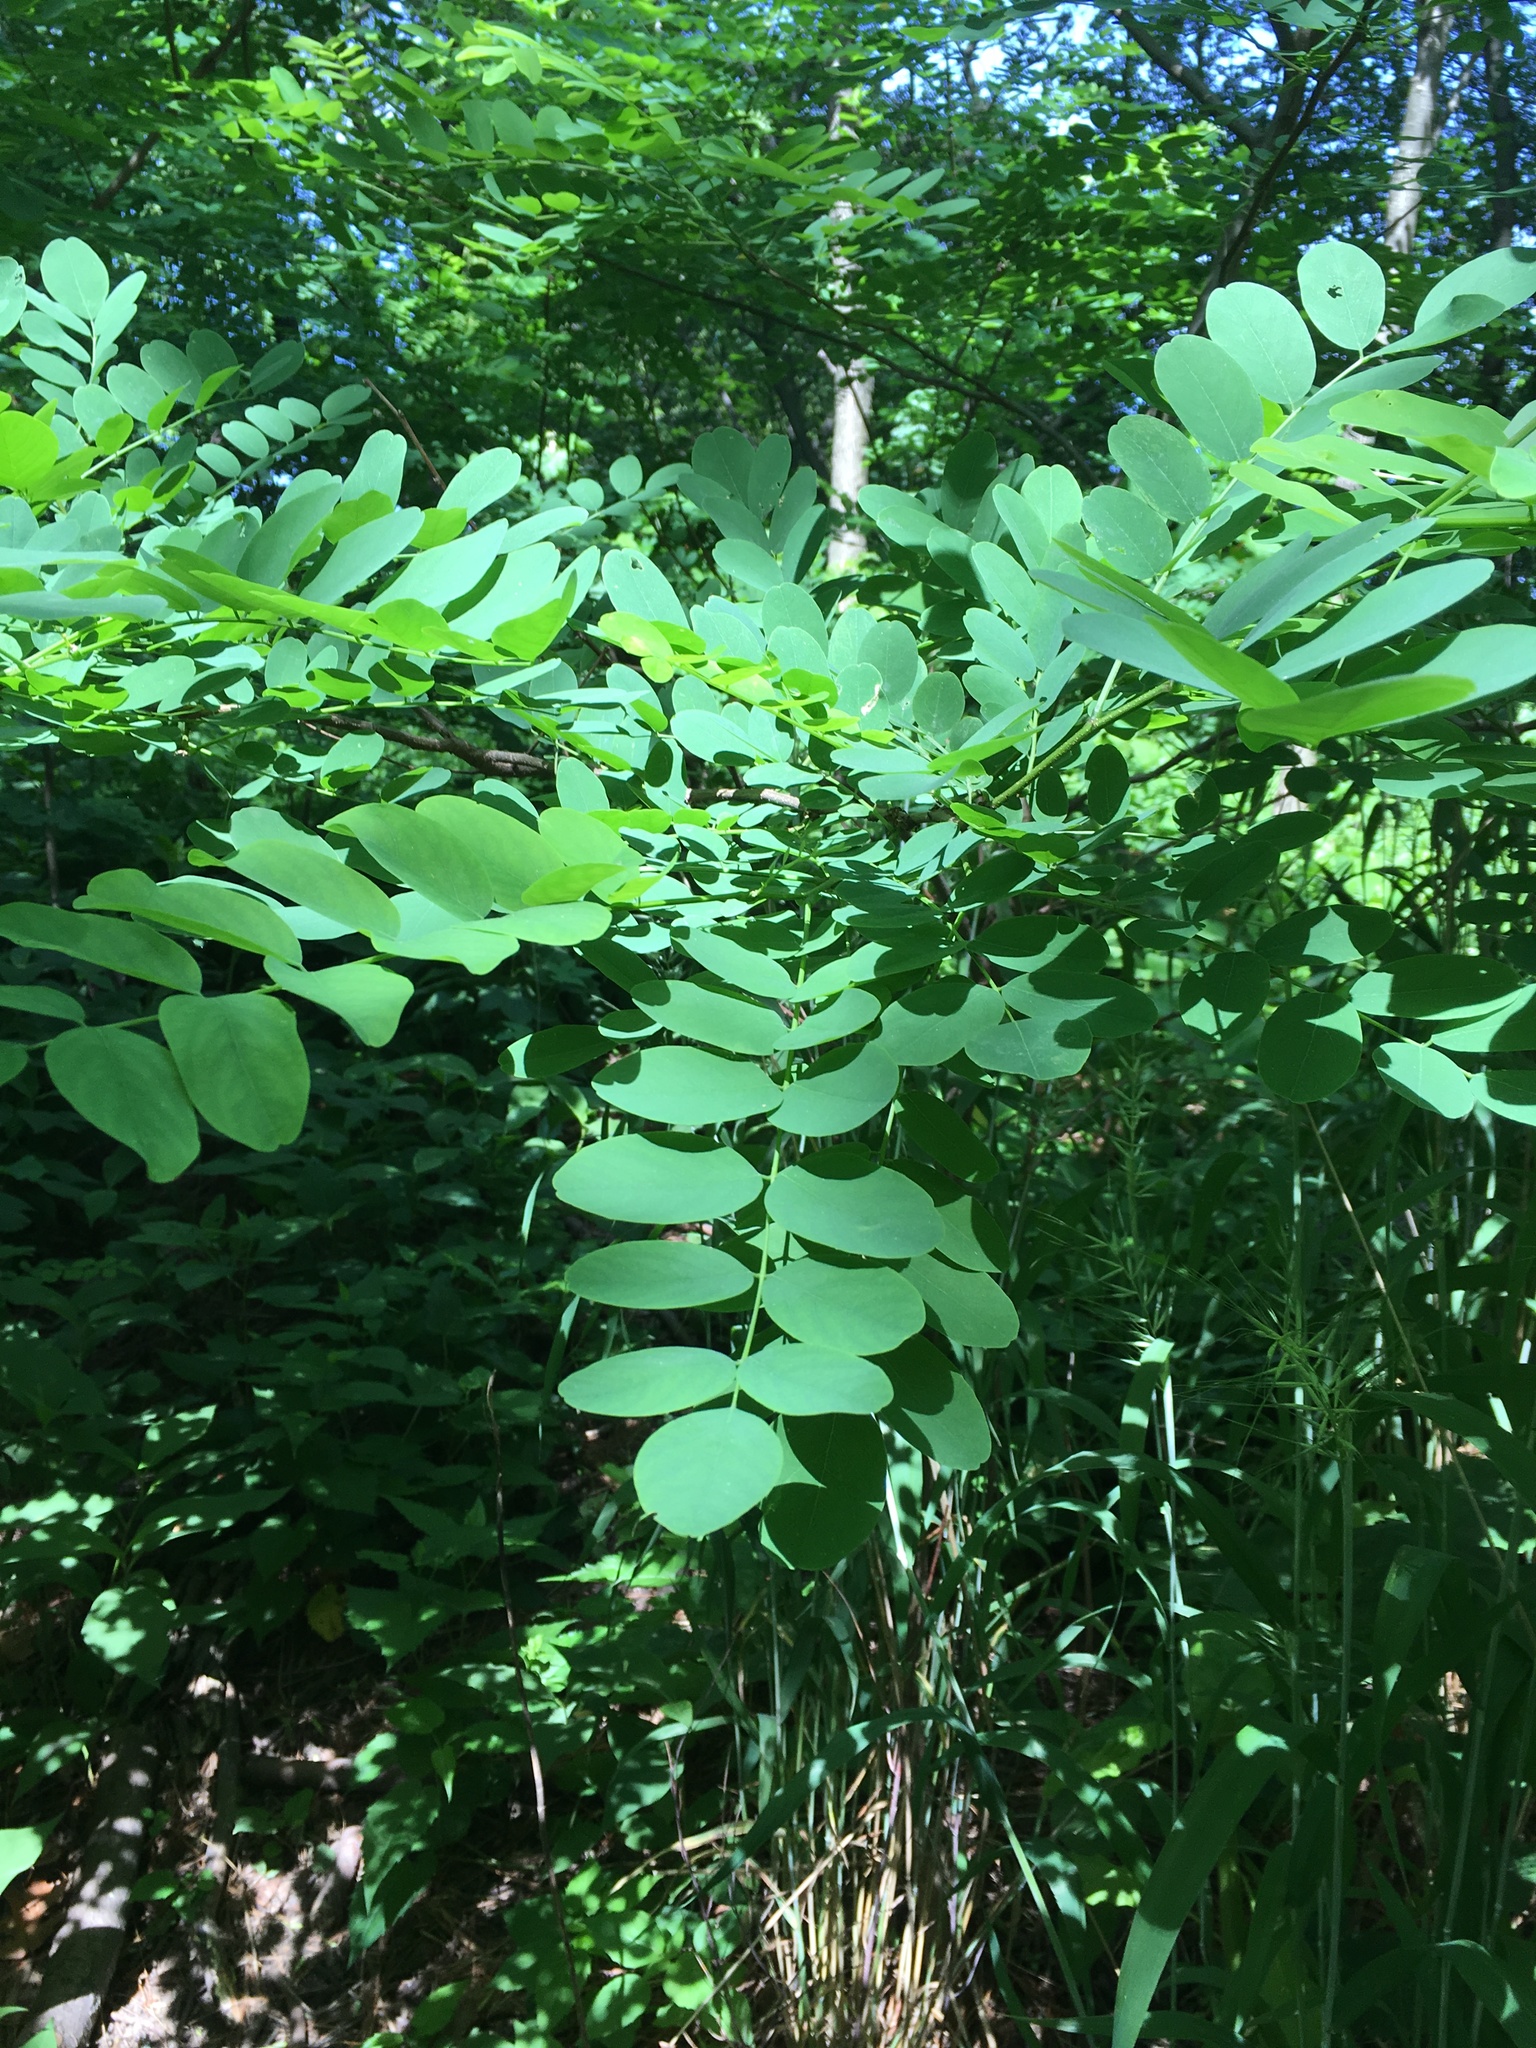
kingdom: Plantae
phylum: Tracheophyta
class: Magnoliopsida
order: Fabales
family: Fabaceae
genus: Robinia
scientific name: Robinia pseudoacacia
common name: Black locust
